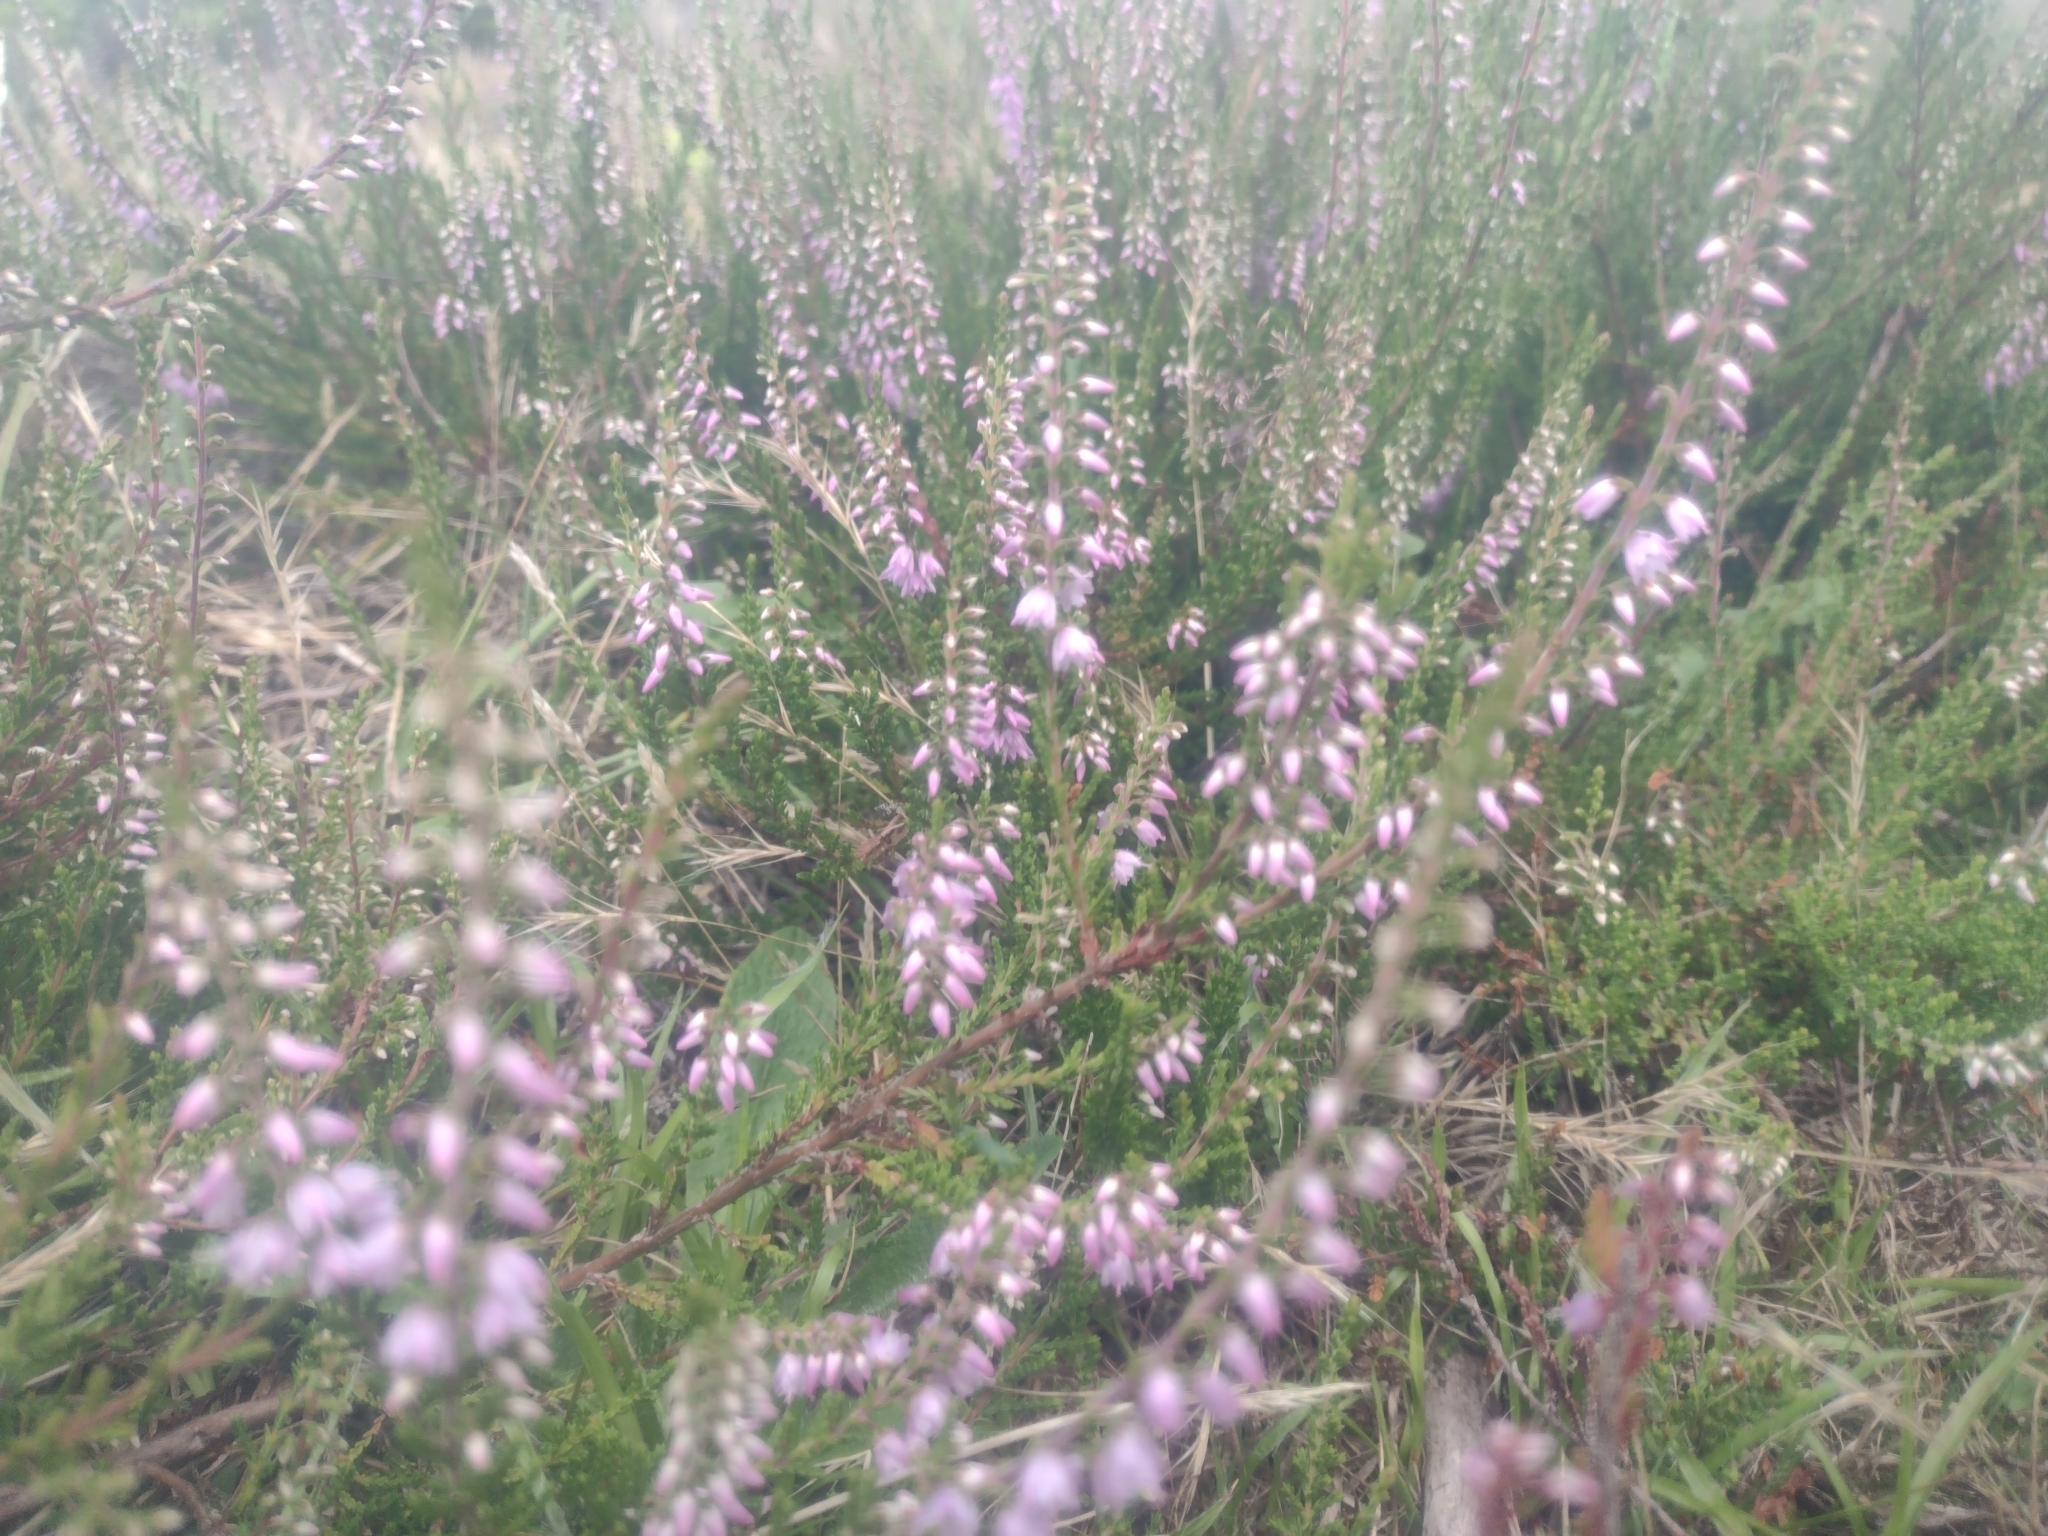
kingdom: Plantae
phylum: Tracheophyta
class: Magnoliopsida
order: Ericales
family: Ericaceae
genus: Calluna
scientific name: Calluna vulgaris
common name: Heather
